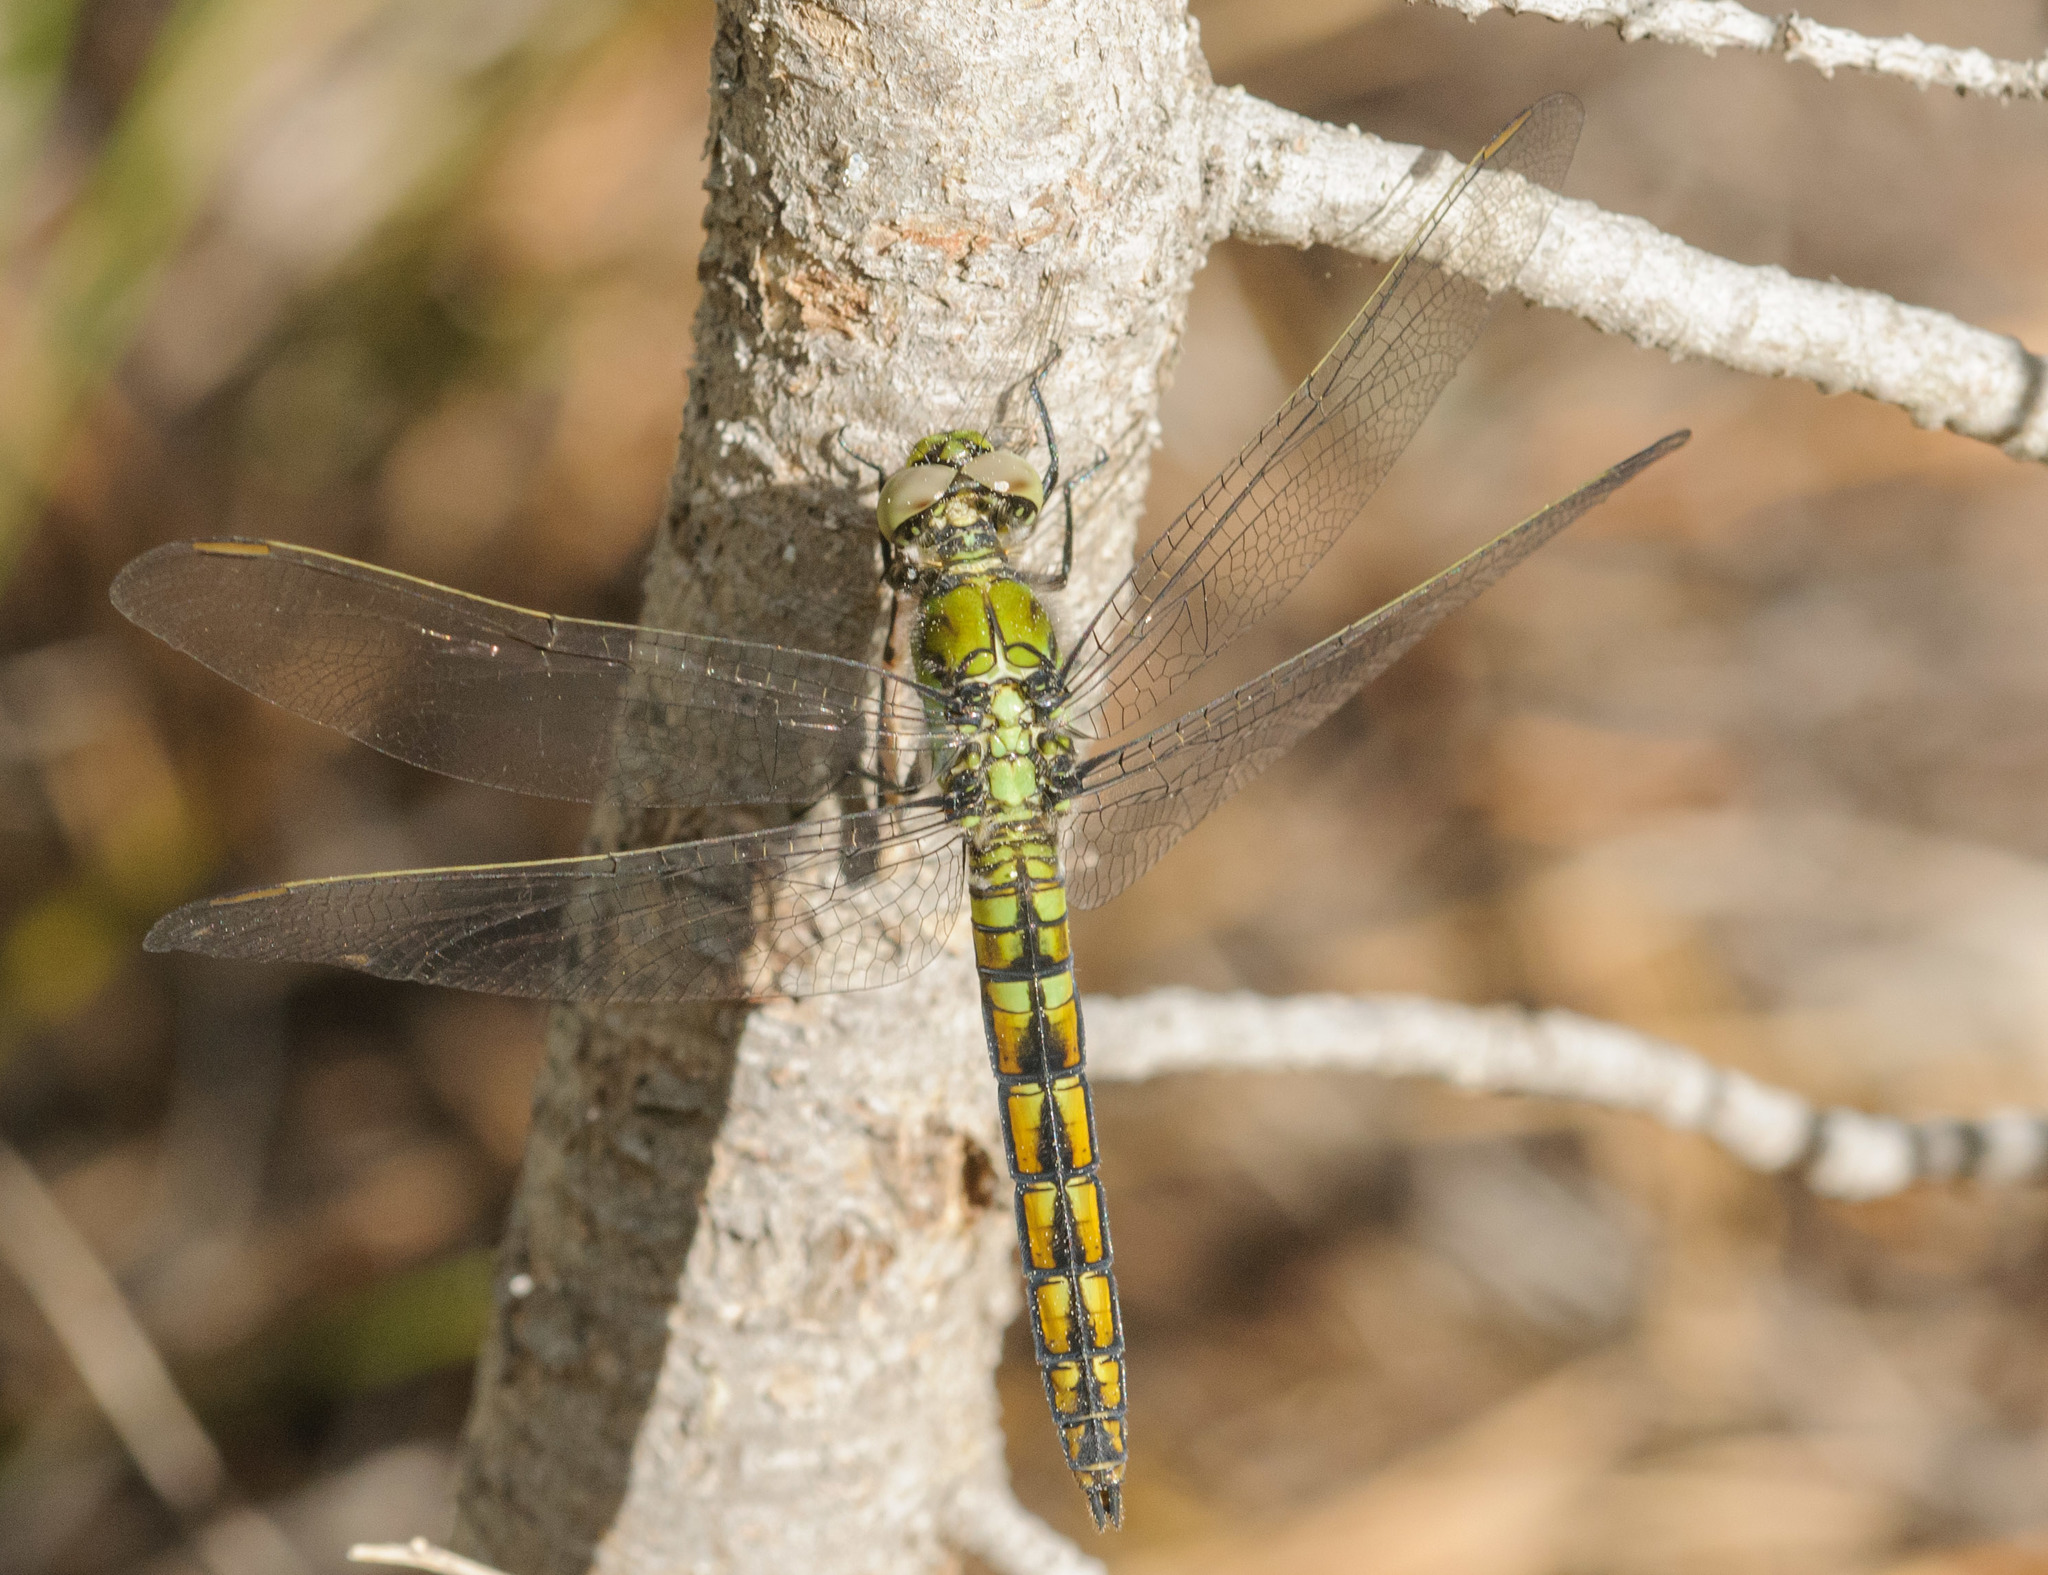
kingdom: Animalia
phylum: Arthropoda
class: Insecta
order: Odonata
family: Libellulidae
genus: Erythemis
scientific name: Erythemis collocata
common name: Western pondhawk
